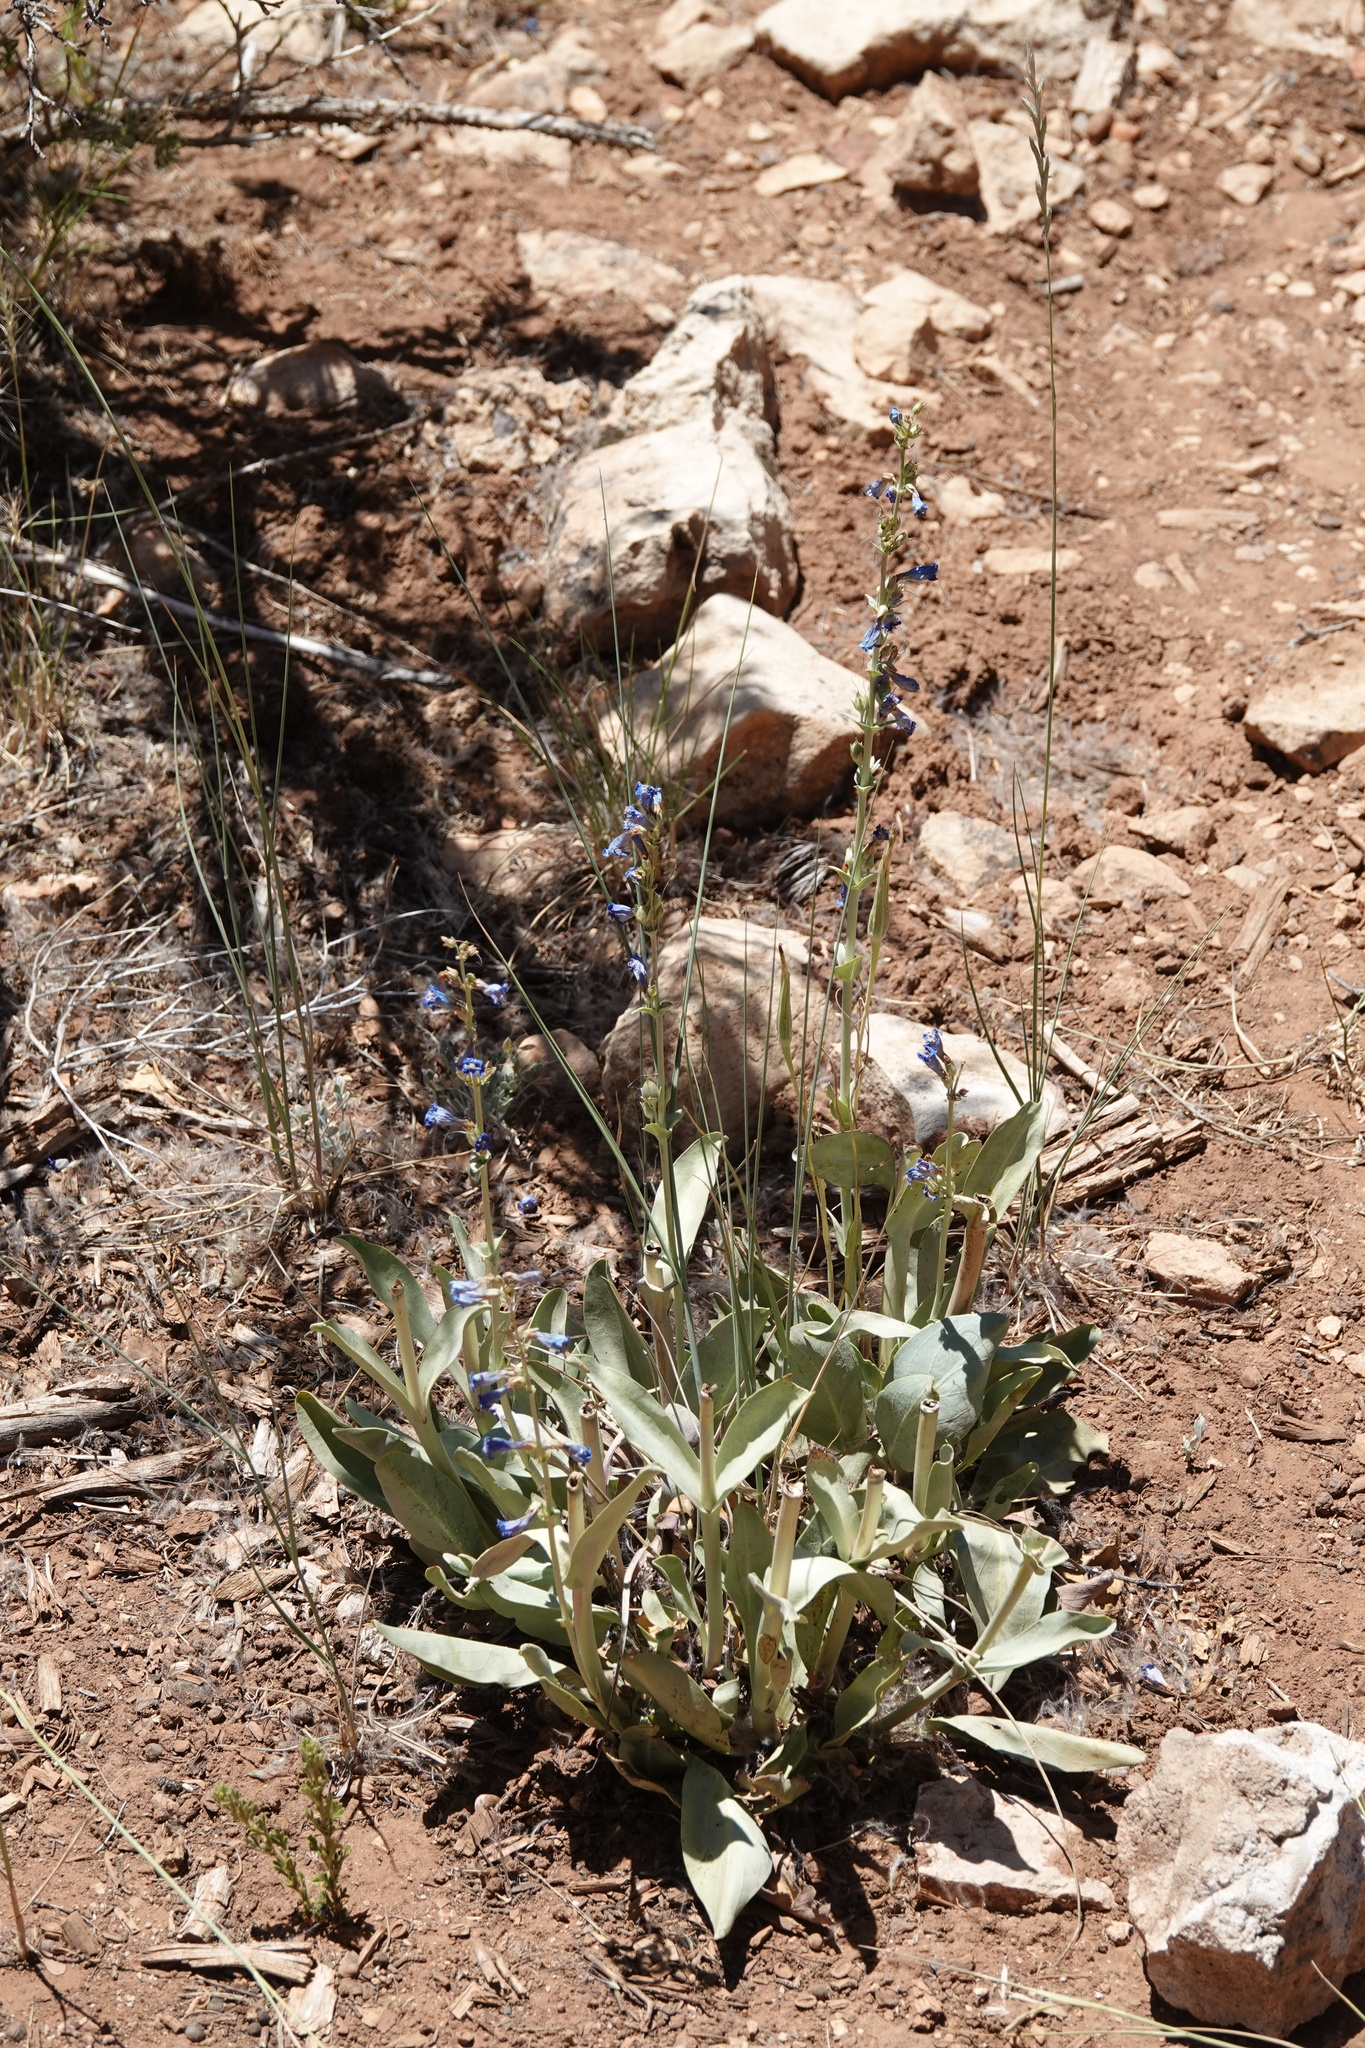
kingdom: Plantae
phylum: Tracheophyta
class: Magnoliopsida
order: Lamiales
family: Plantaginaceae
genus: Penstemon
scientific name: Penstemon pachyphyllus
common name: Thick-leaf penstemon
